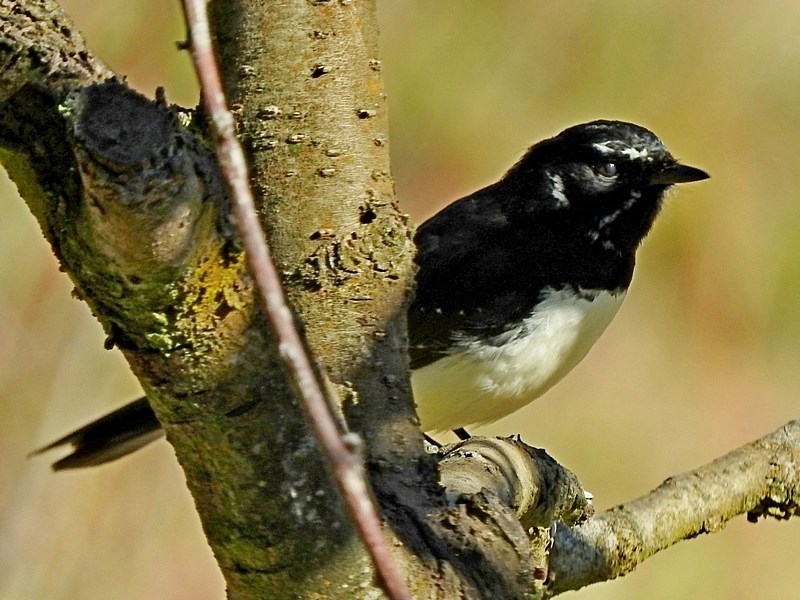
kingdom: Animalia
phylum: Chordata
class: Aves
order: Passeriformes
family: Rhipiduridae
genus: Rhipidura
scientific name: Rhipidura leucophrys
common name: Willie wagtail
